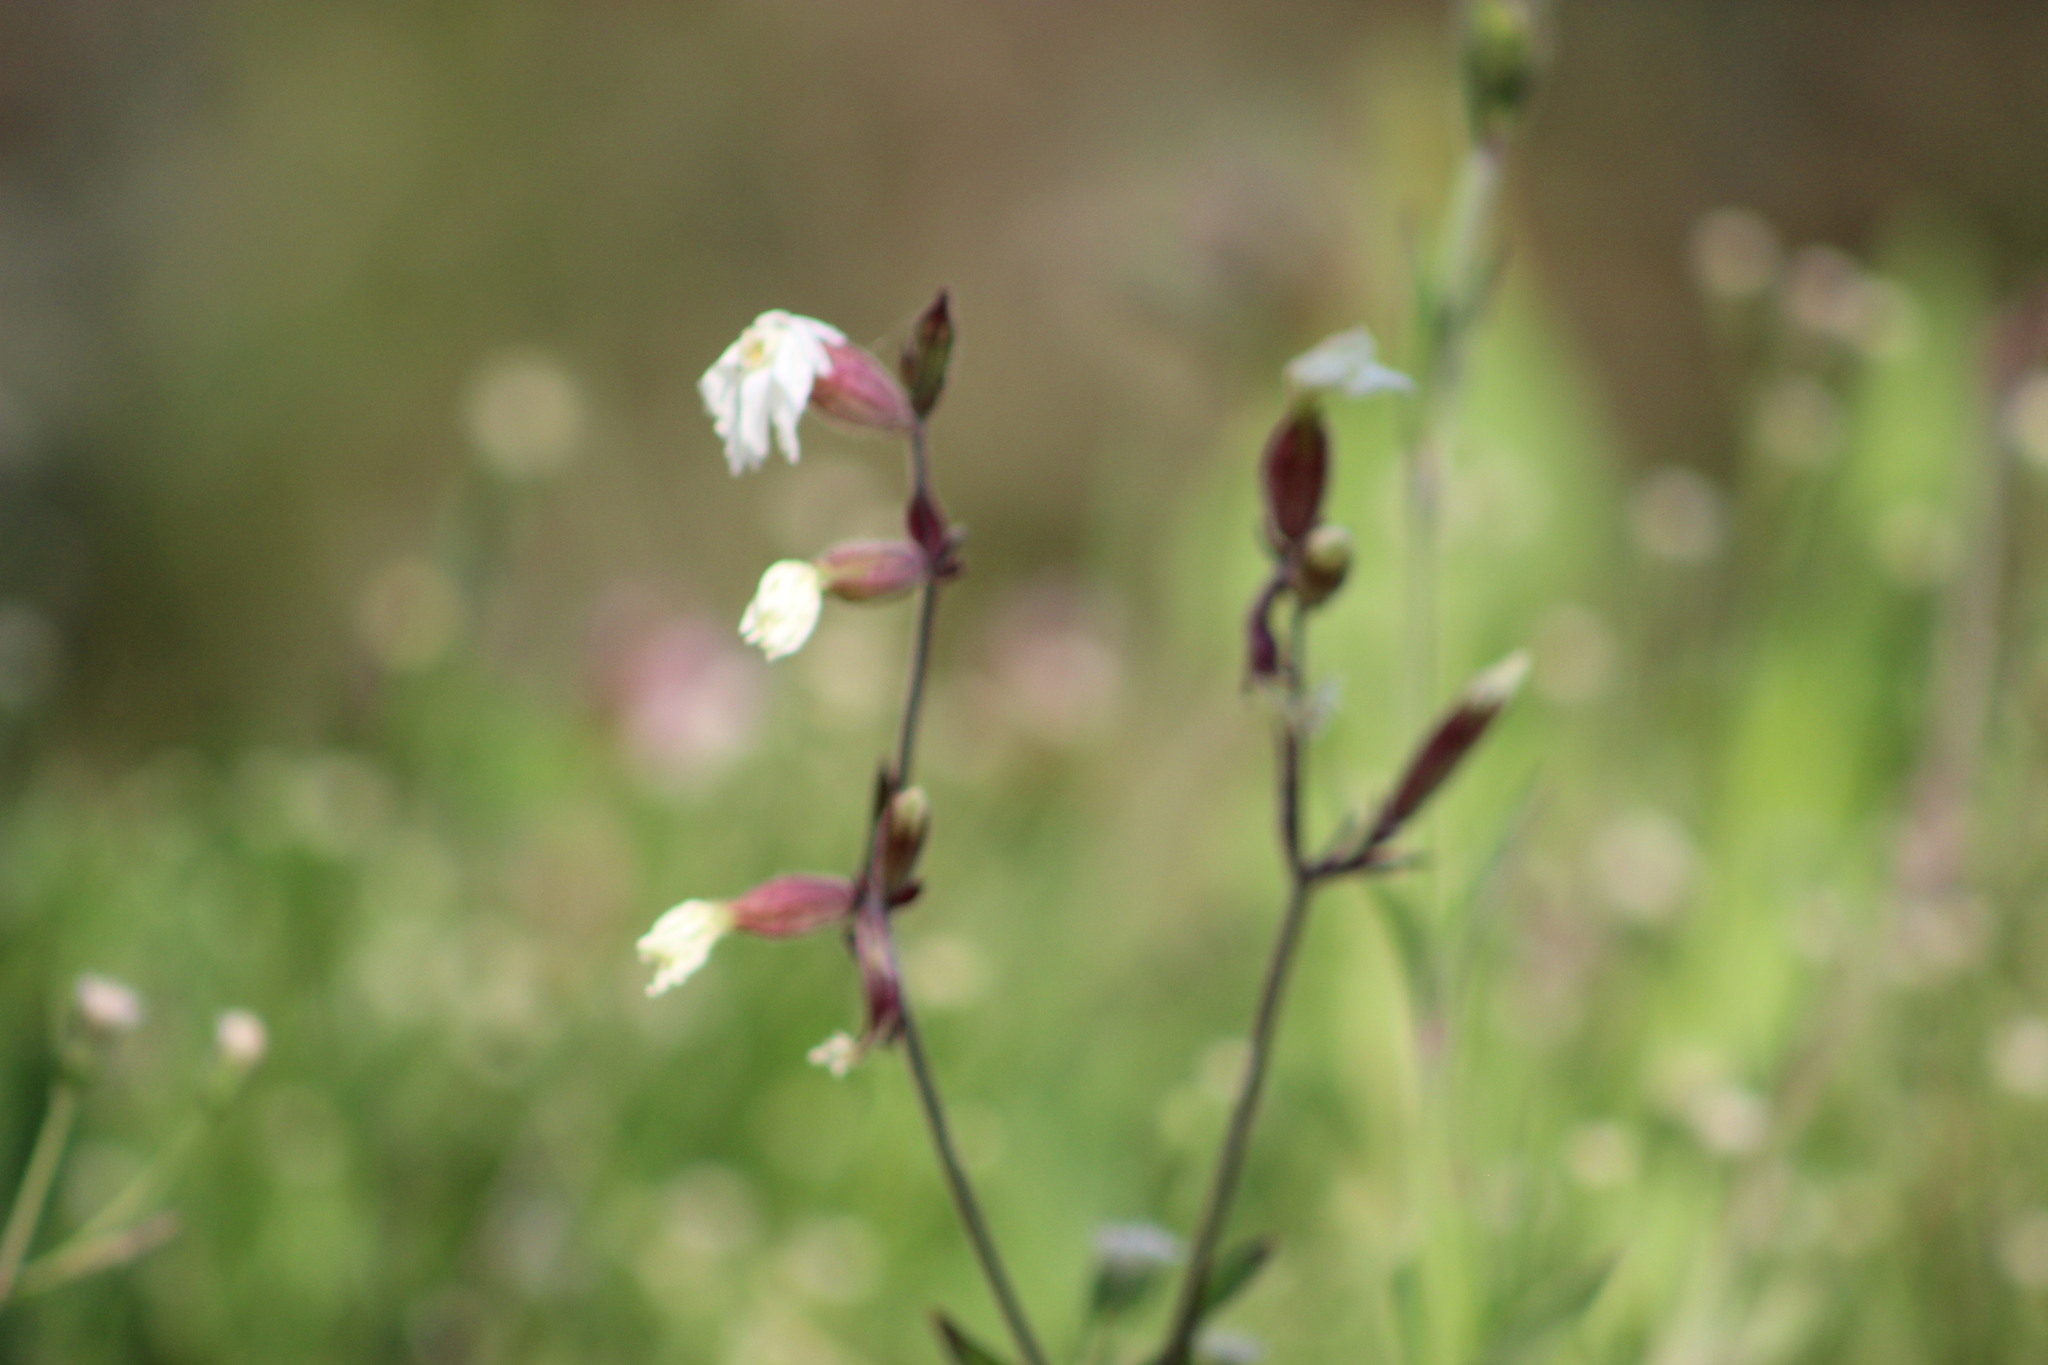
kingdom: Plantae
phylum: Tracheophyta
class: Magnoliopsida
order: Caryophyllales
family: Caryophyllaceae
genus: Silene
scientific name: Silene latifolia
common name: White campion
